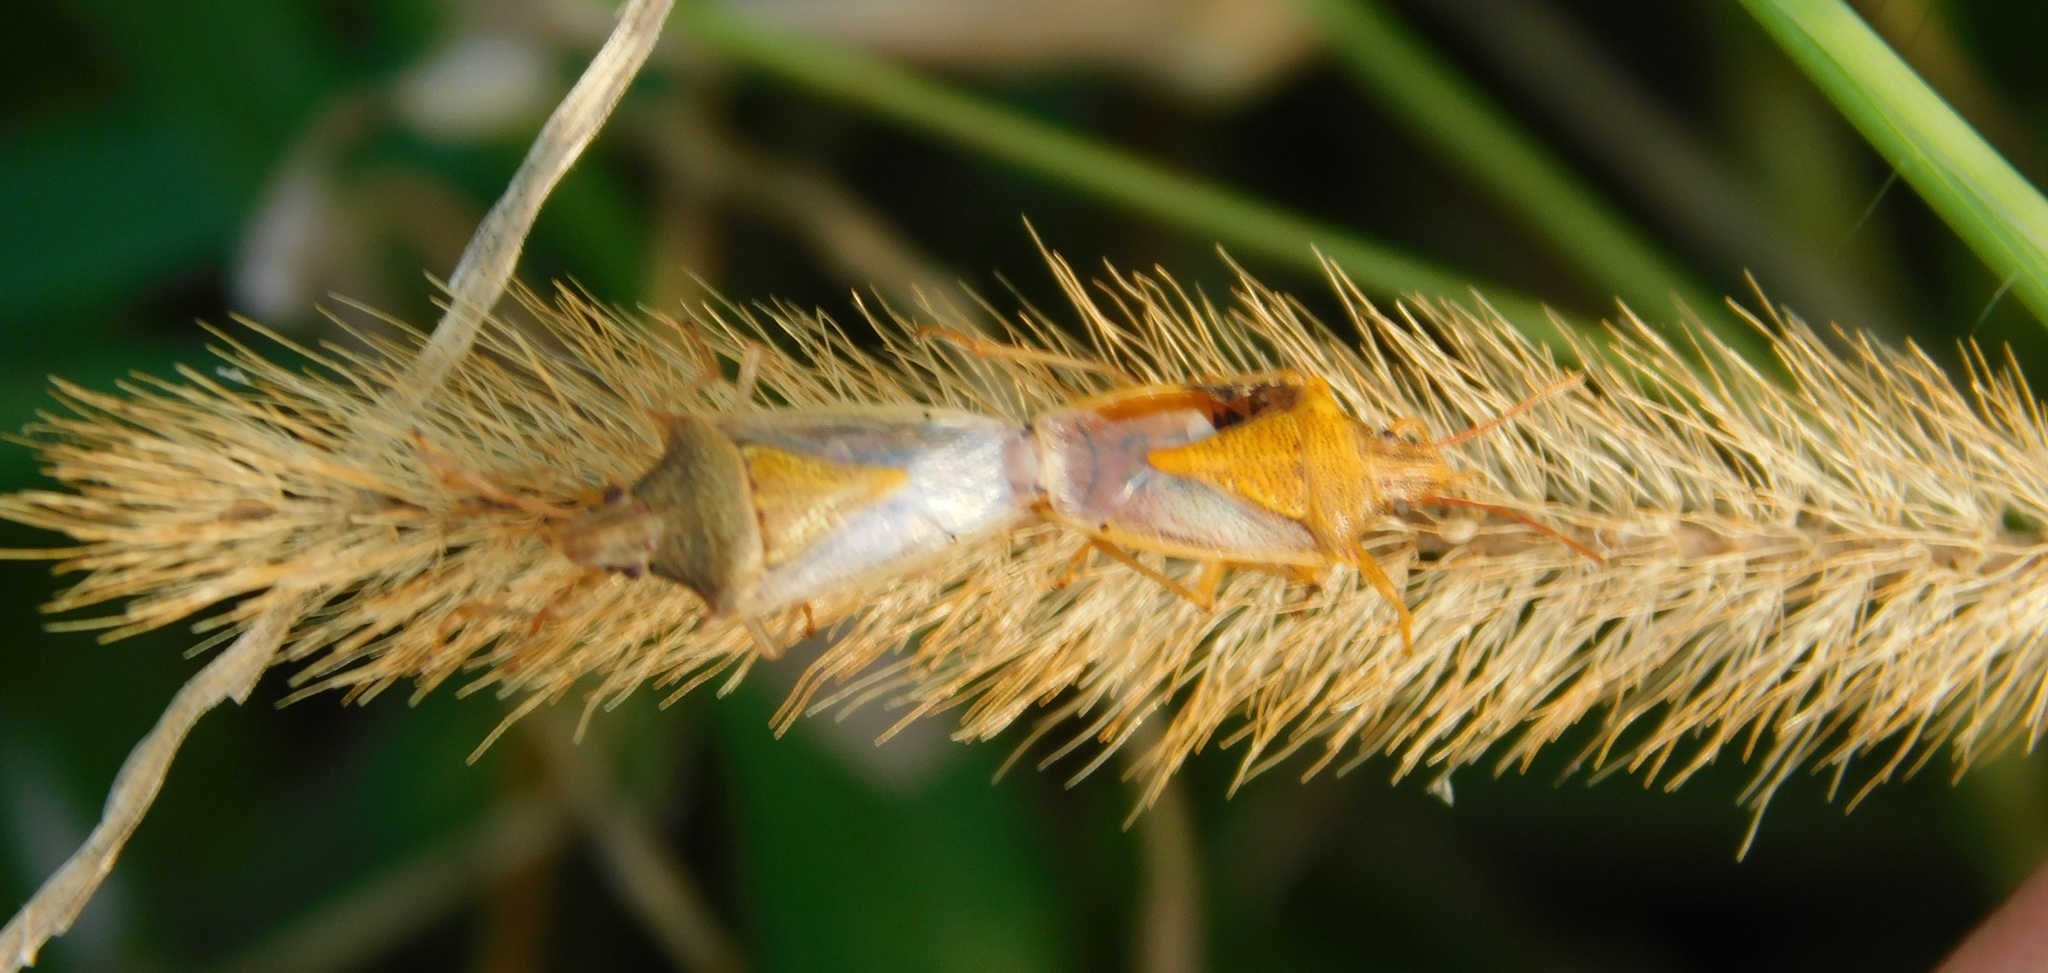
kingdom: Animalia
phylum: Arthropoda
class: Insecta
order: Hemiptera
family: Pentatomidae
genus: Oebalus
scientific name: Oebalus pugnax
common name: Rice stink bug
